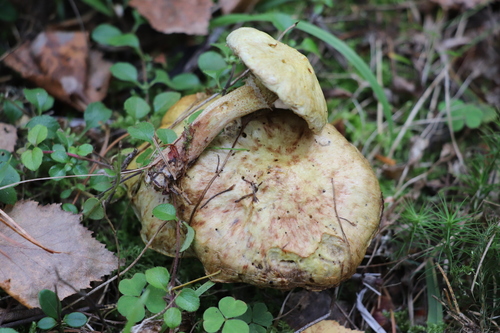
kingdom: Fungi
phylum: Basidiomycota
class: Agaricomycetes
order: Boletales
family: Suillaceae
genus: Suillus
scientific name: Suillus americanus
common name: Chicken fat mushroom
